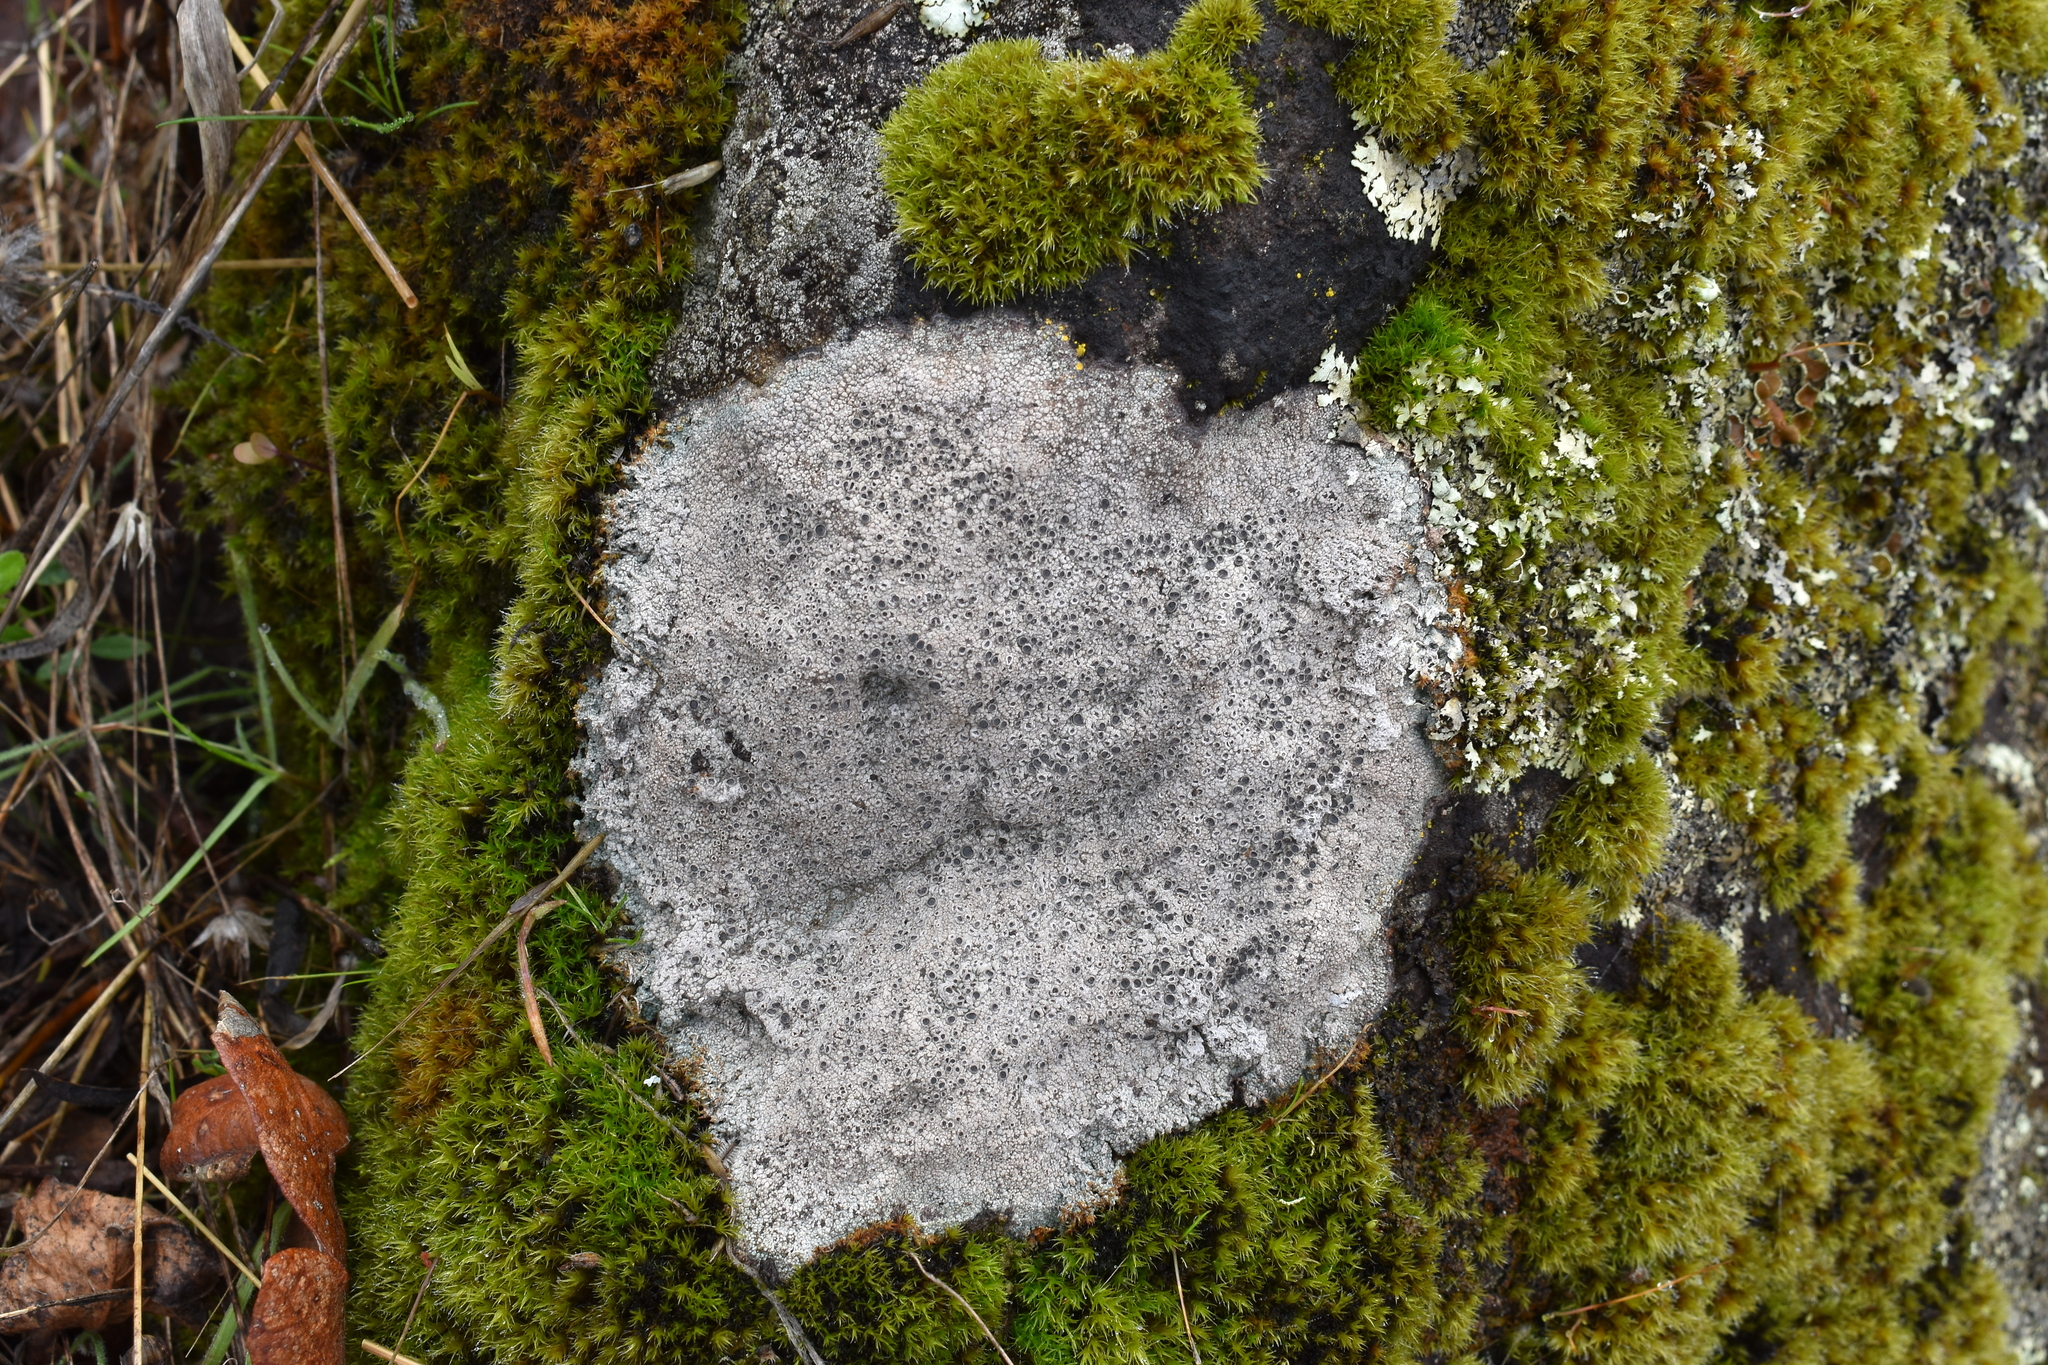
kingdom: Fungi
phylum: Ascomycota
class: Lecanoromycetes
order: Ostropales
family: Graphidaceae
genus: Diploschistes
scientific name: Diploschistes muscorum
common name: Cowpie lichen
